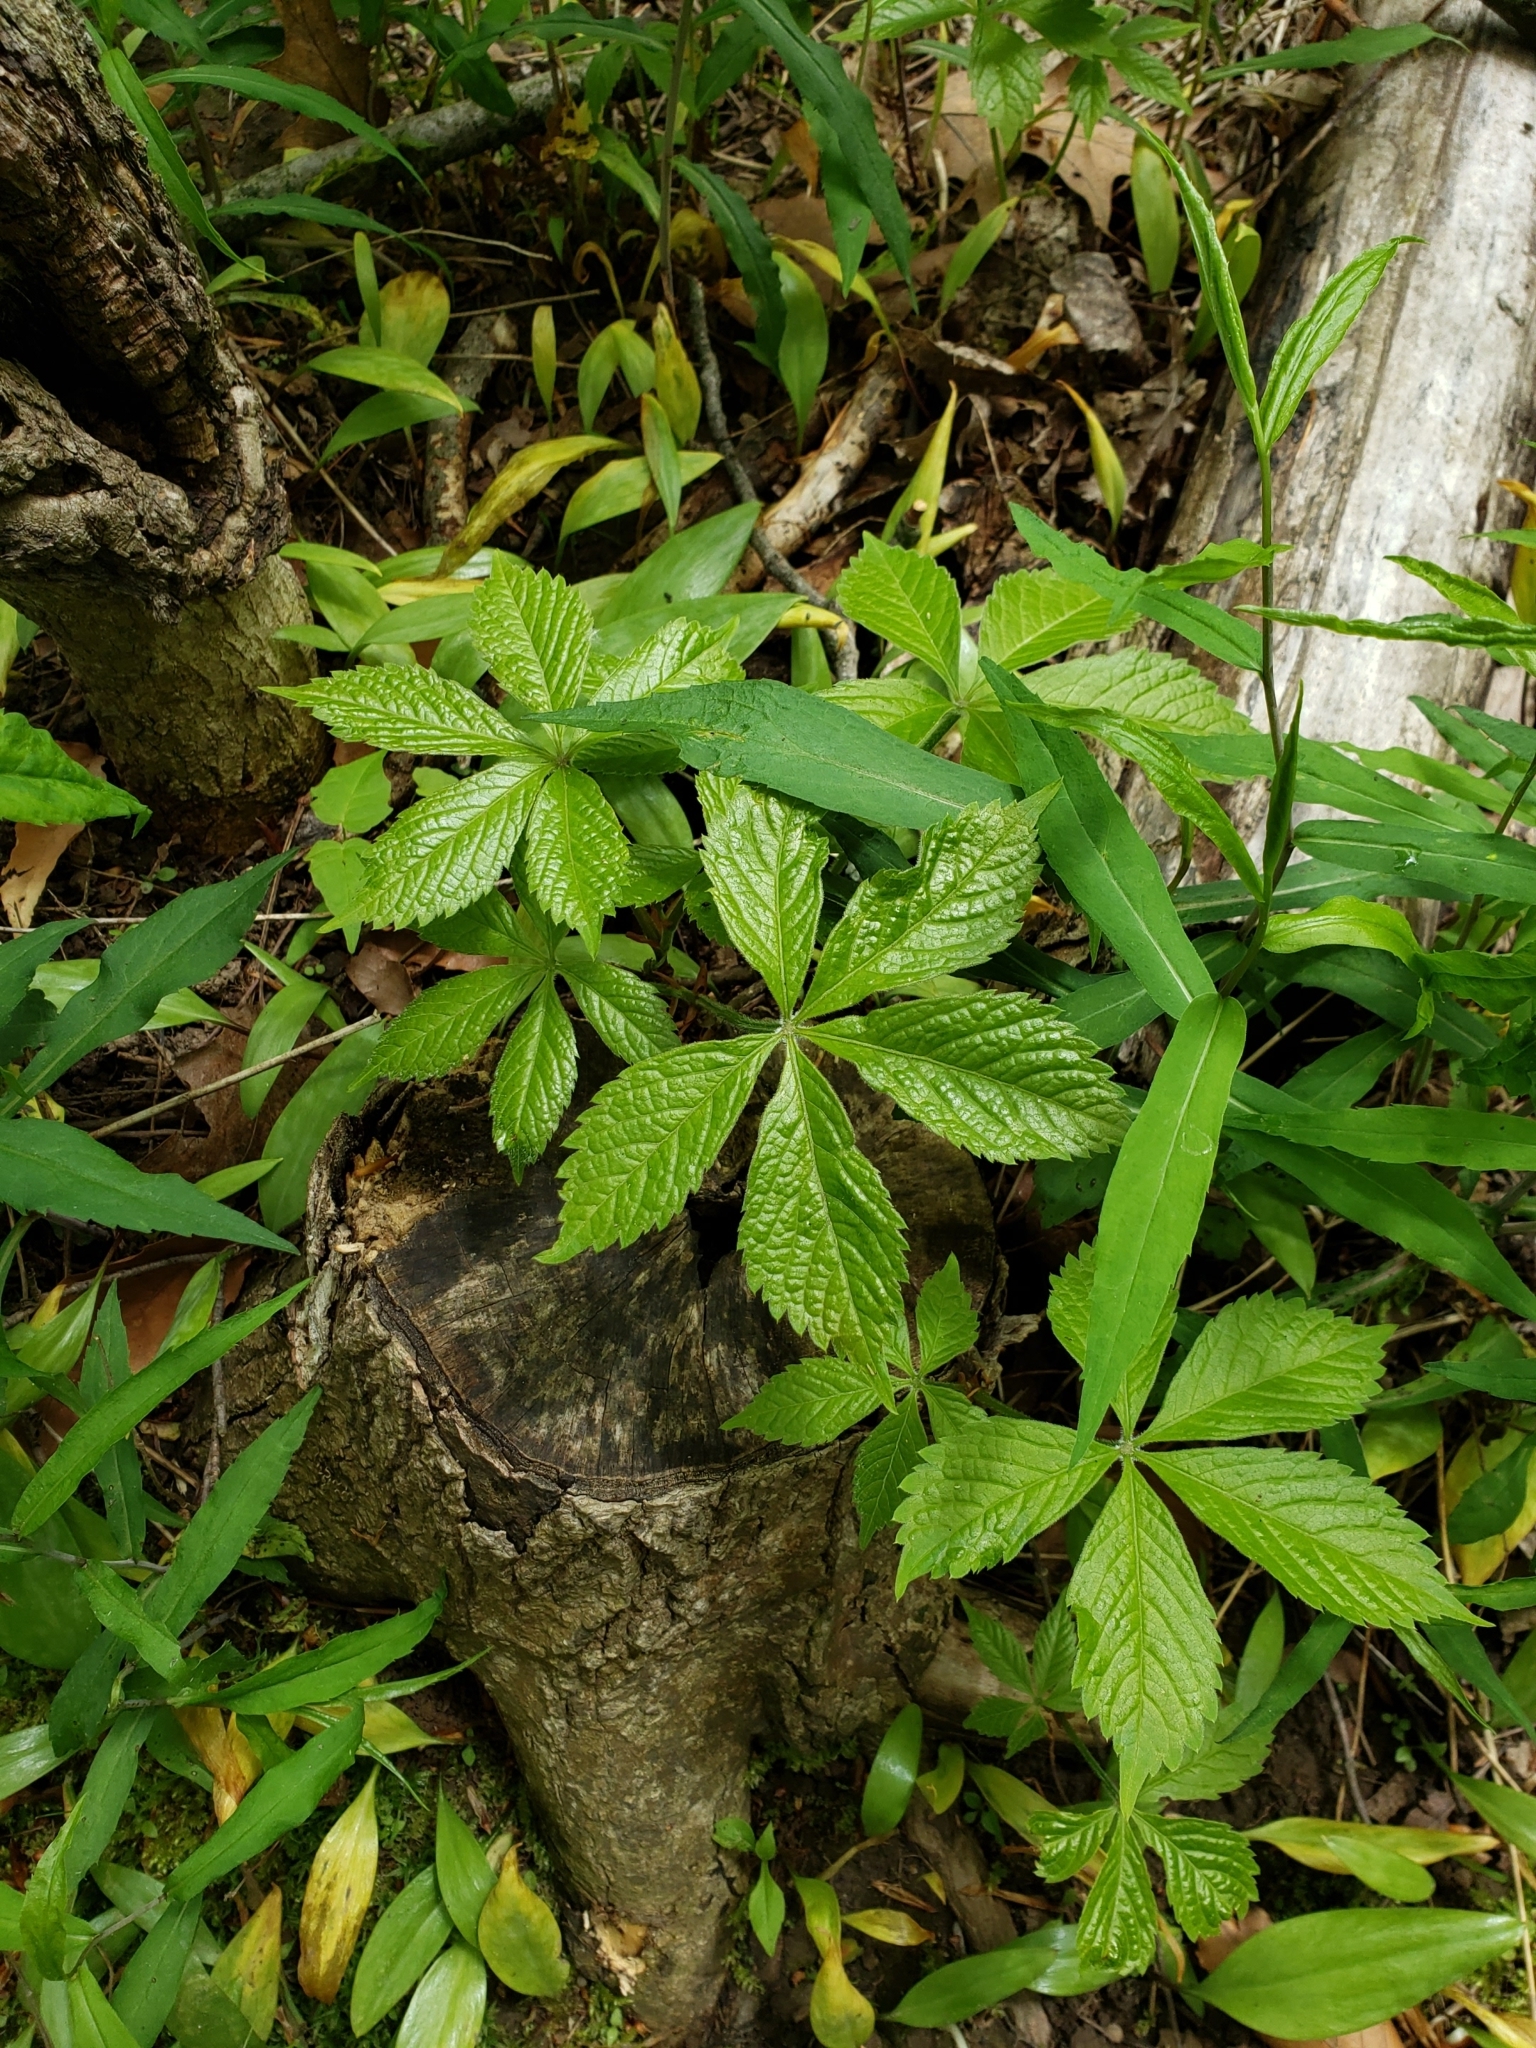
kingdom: Plantae
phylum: Tracheophyta
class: Magnoliopsida
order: Vitales
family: Vitaceae
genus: Parthenocissus
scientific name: Parthenocissus quinquefolia
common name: Virginia-creeper
